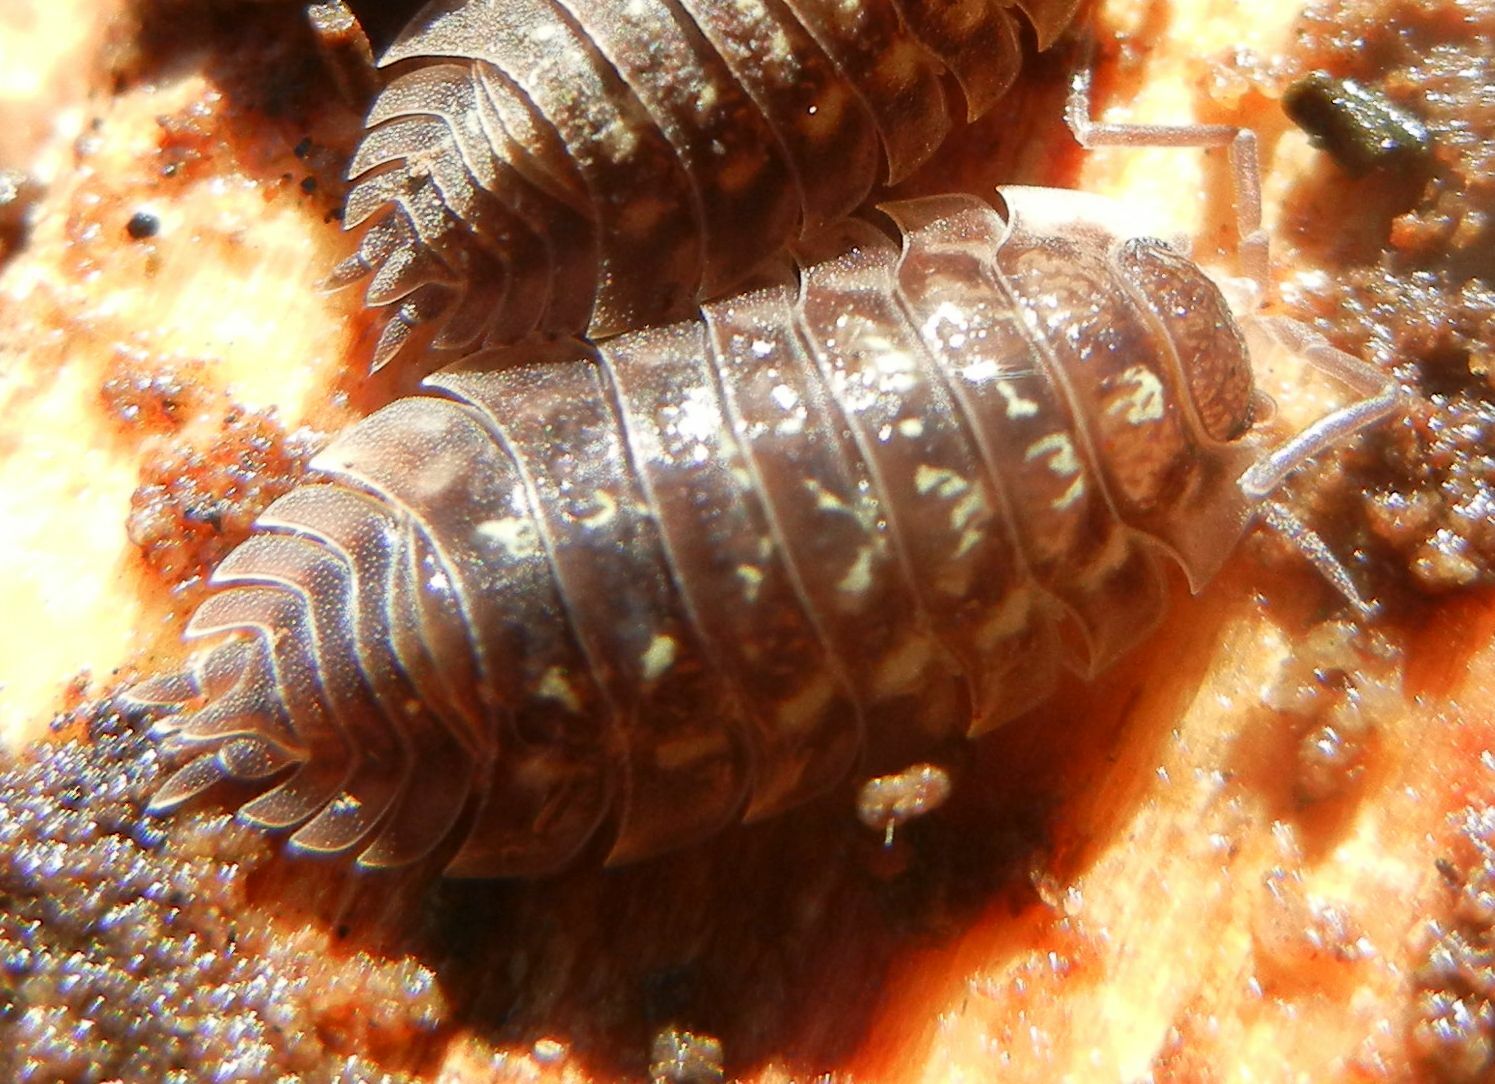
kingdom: Animalia
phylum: Arthropoda
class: Malacostraca
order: Isopoda
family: Oniscidae
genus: Oniscus
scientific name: Oniscus asellus
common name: Common shiny woodlouse
